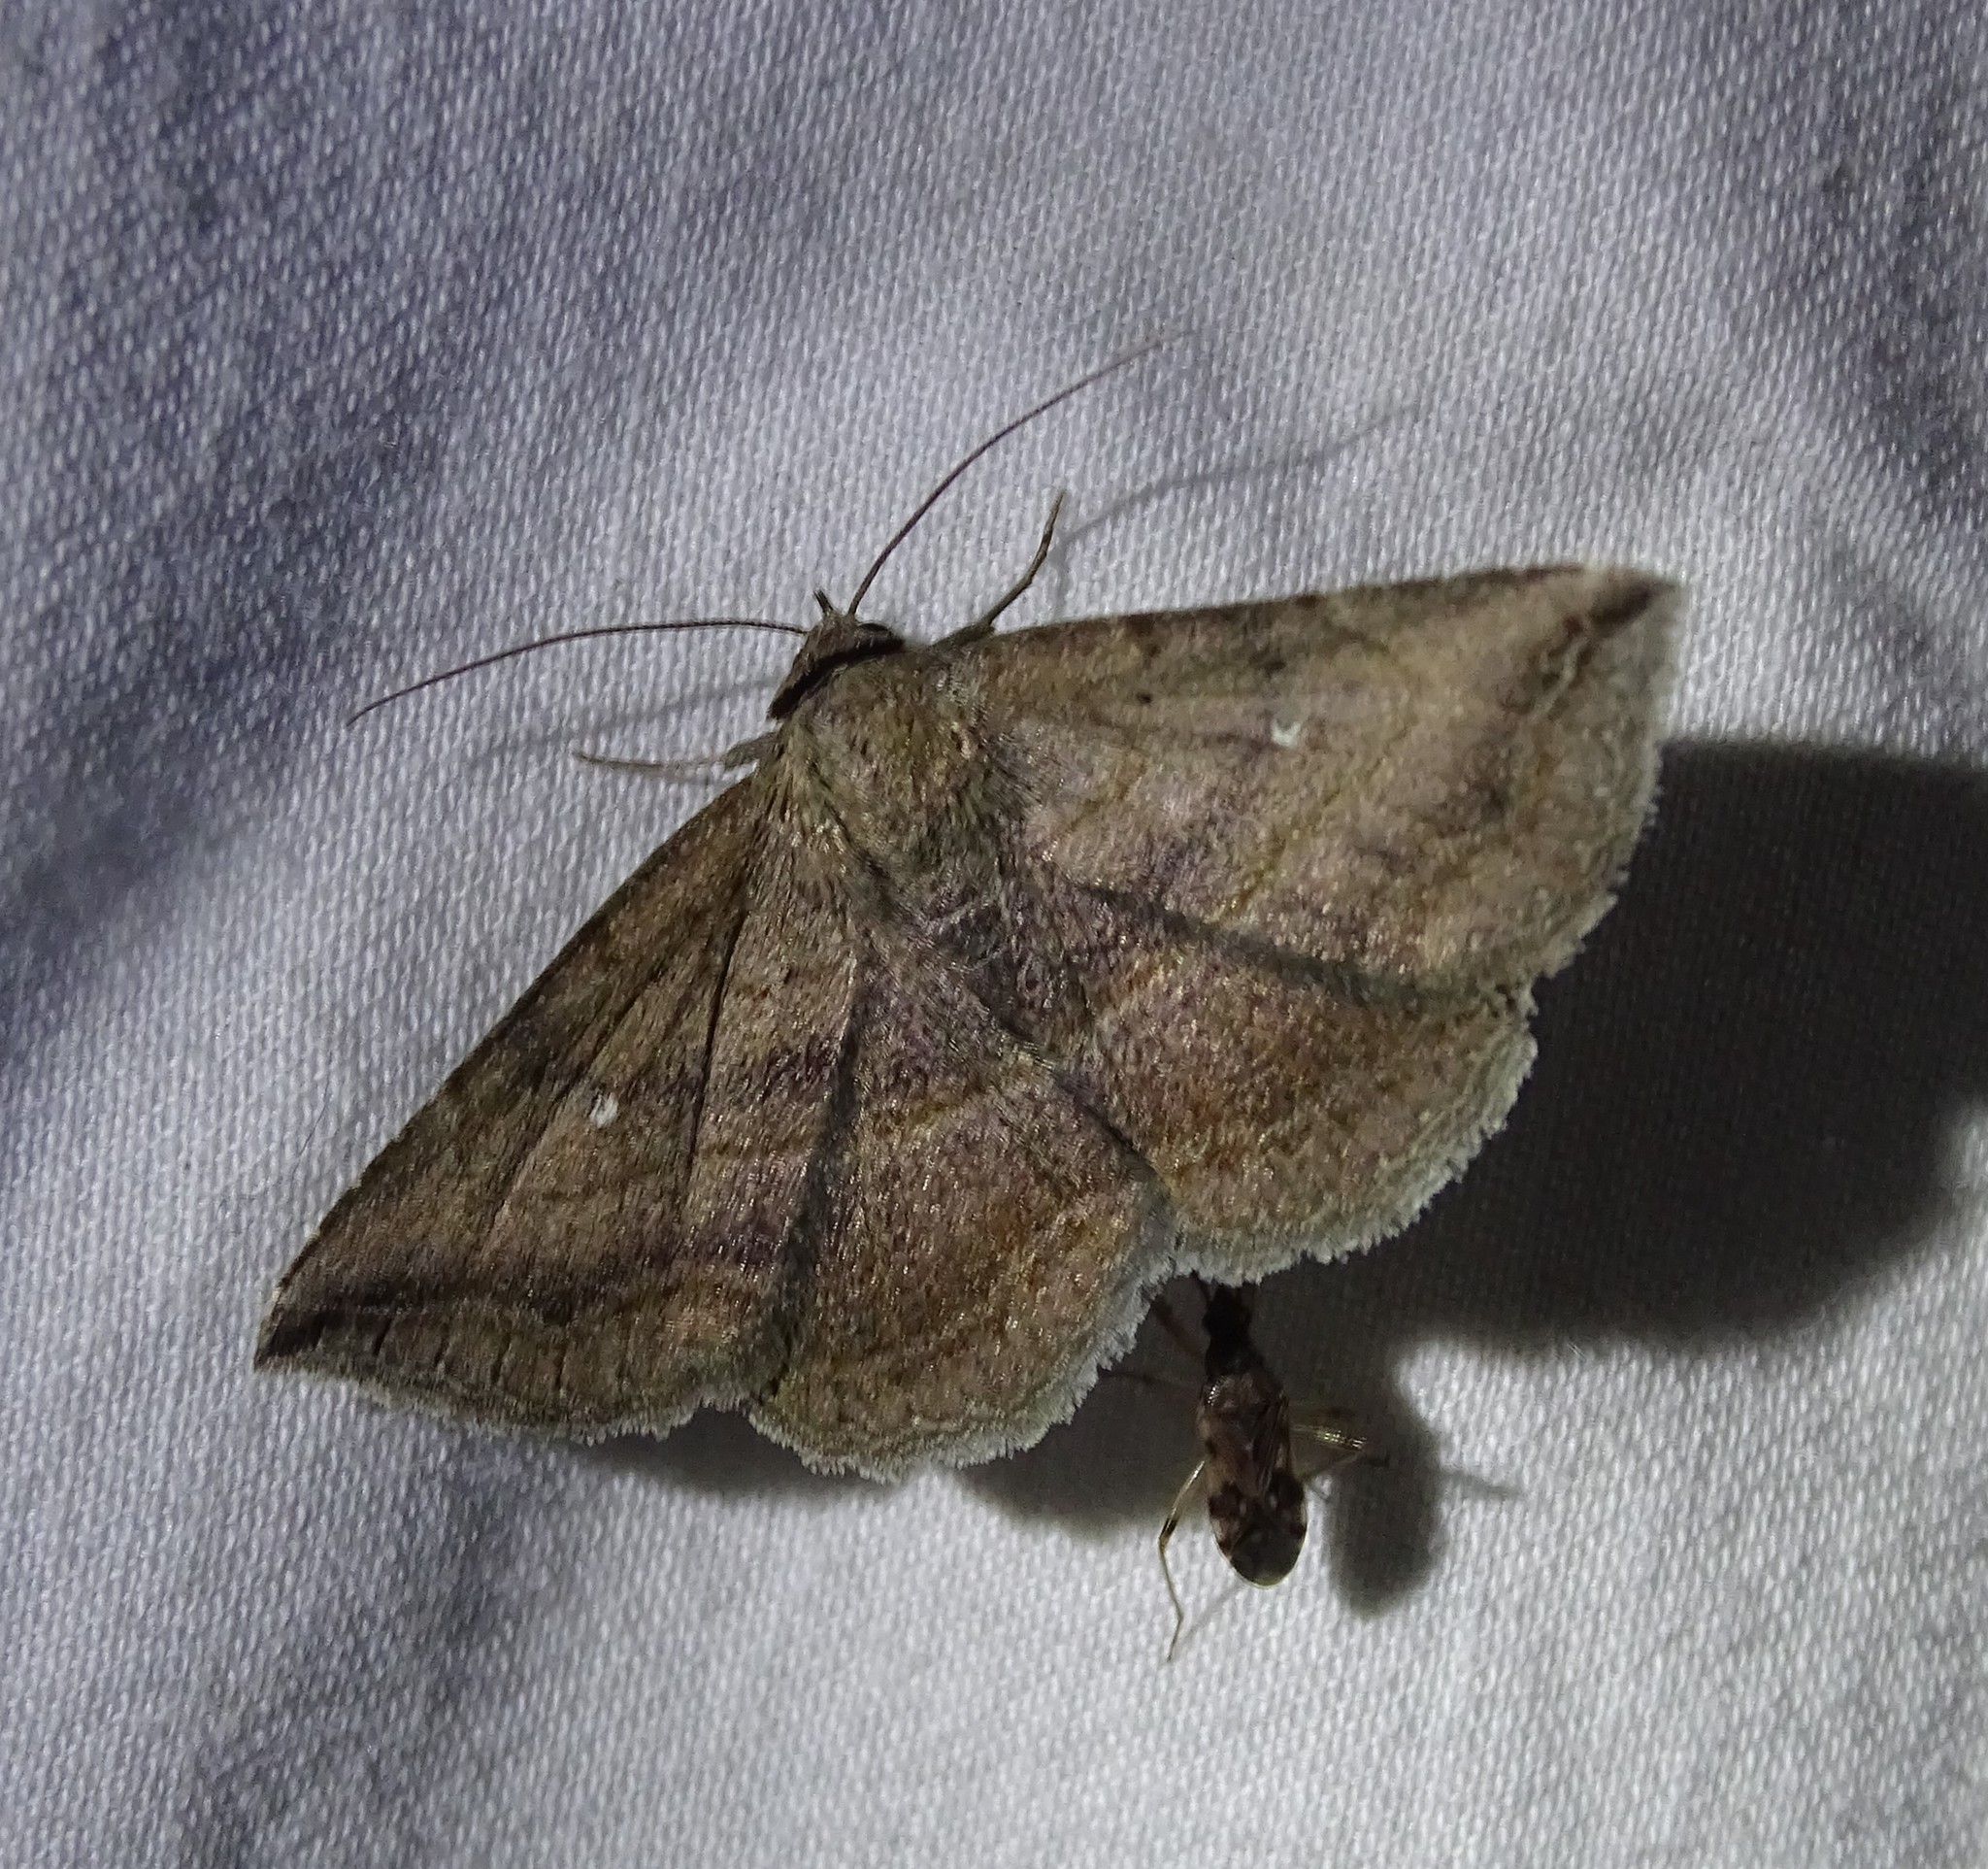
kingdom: Animalia
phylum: Arthropoda
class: Insecta
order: Lepidoptera
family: Erebidae
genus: Lesmone
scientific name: Lesmone detrahens
